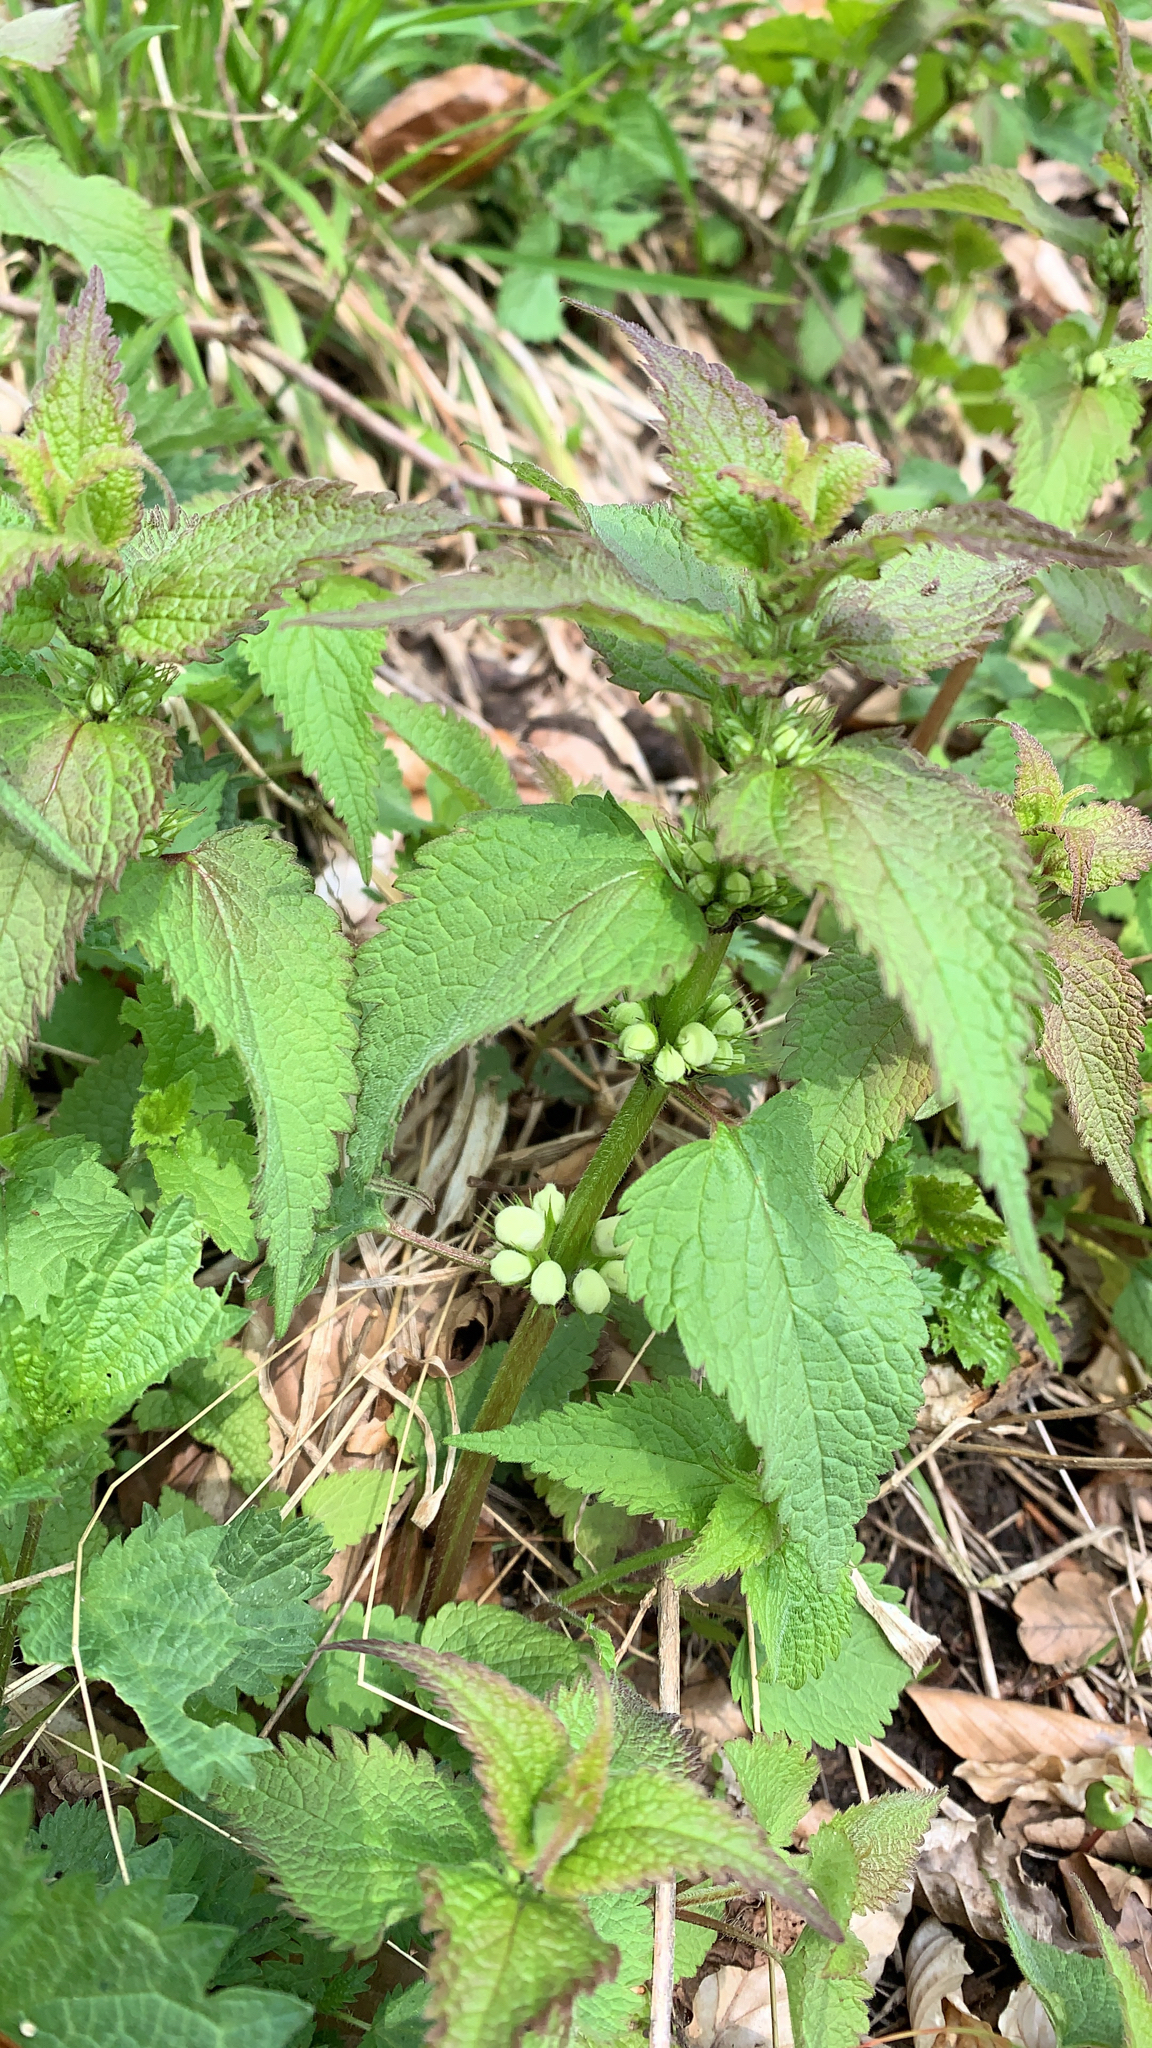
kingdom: Plantae
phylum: Tracheophyta
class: Magnoliopsida
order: Lamiales
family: Lamiaceae
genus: Lamium
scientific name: Lamium album
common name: White dead-nettle
